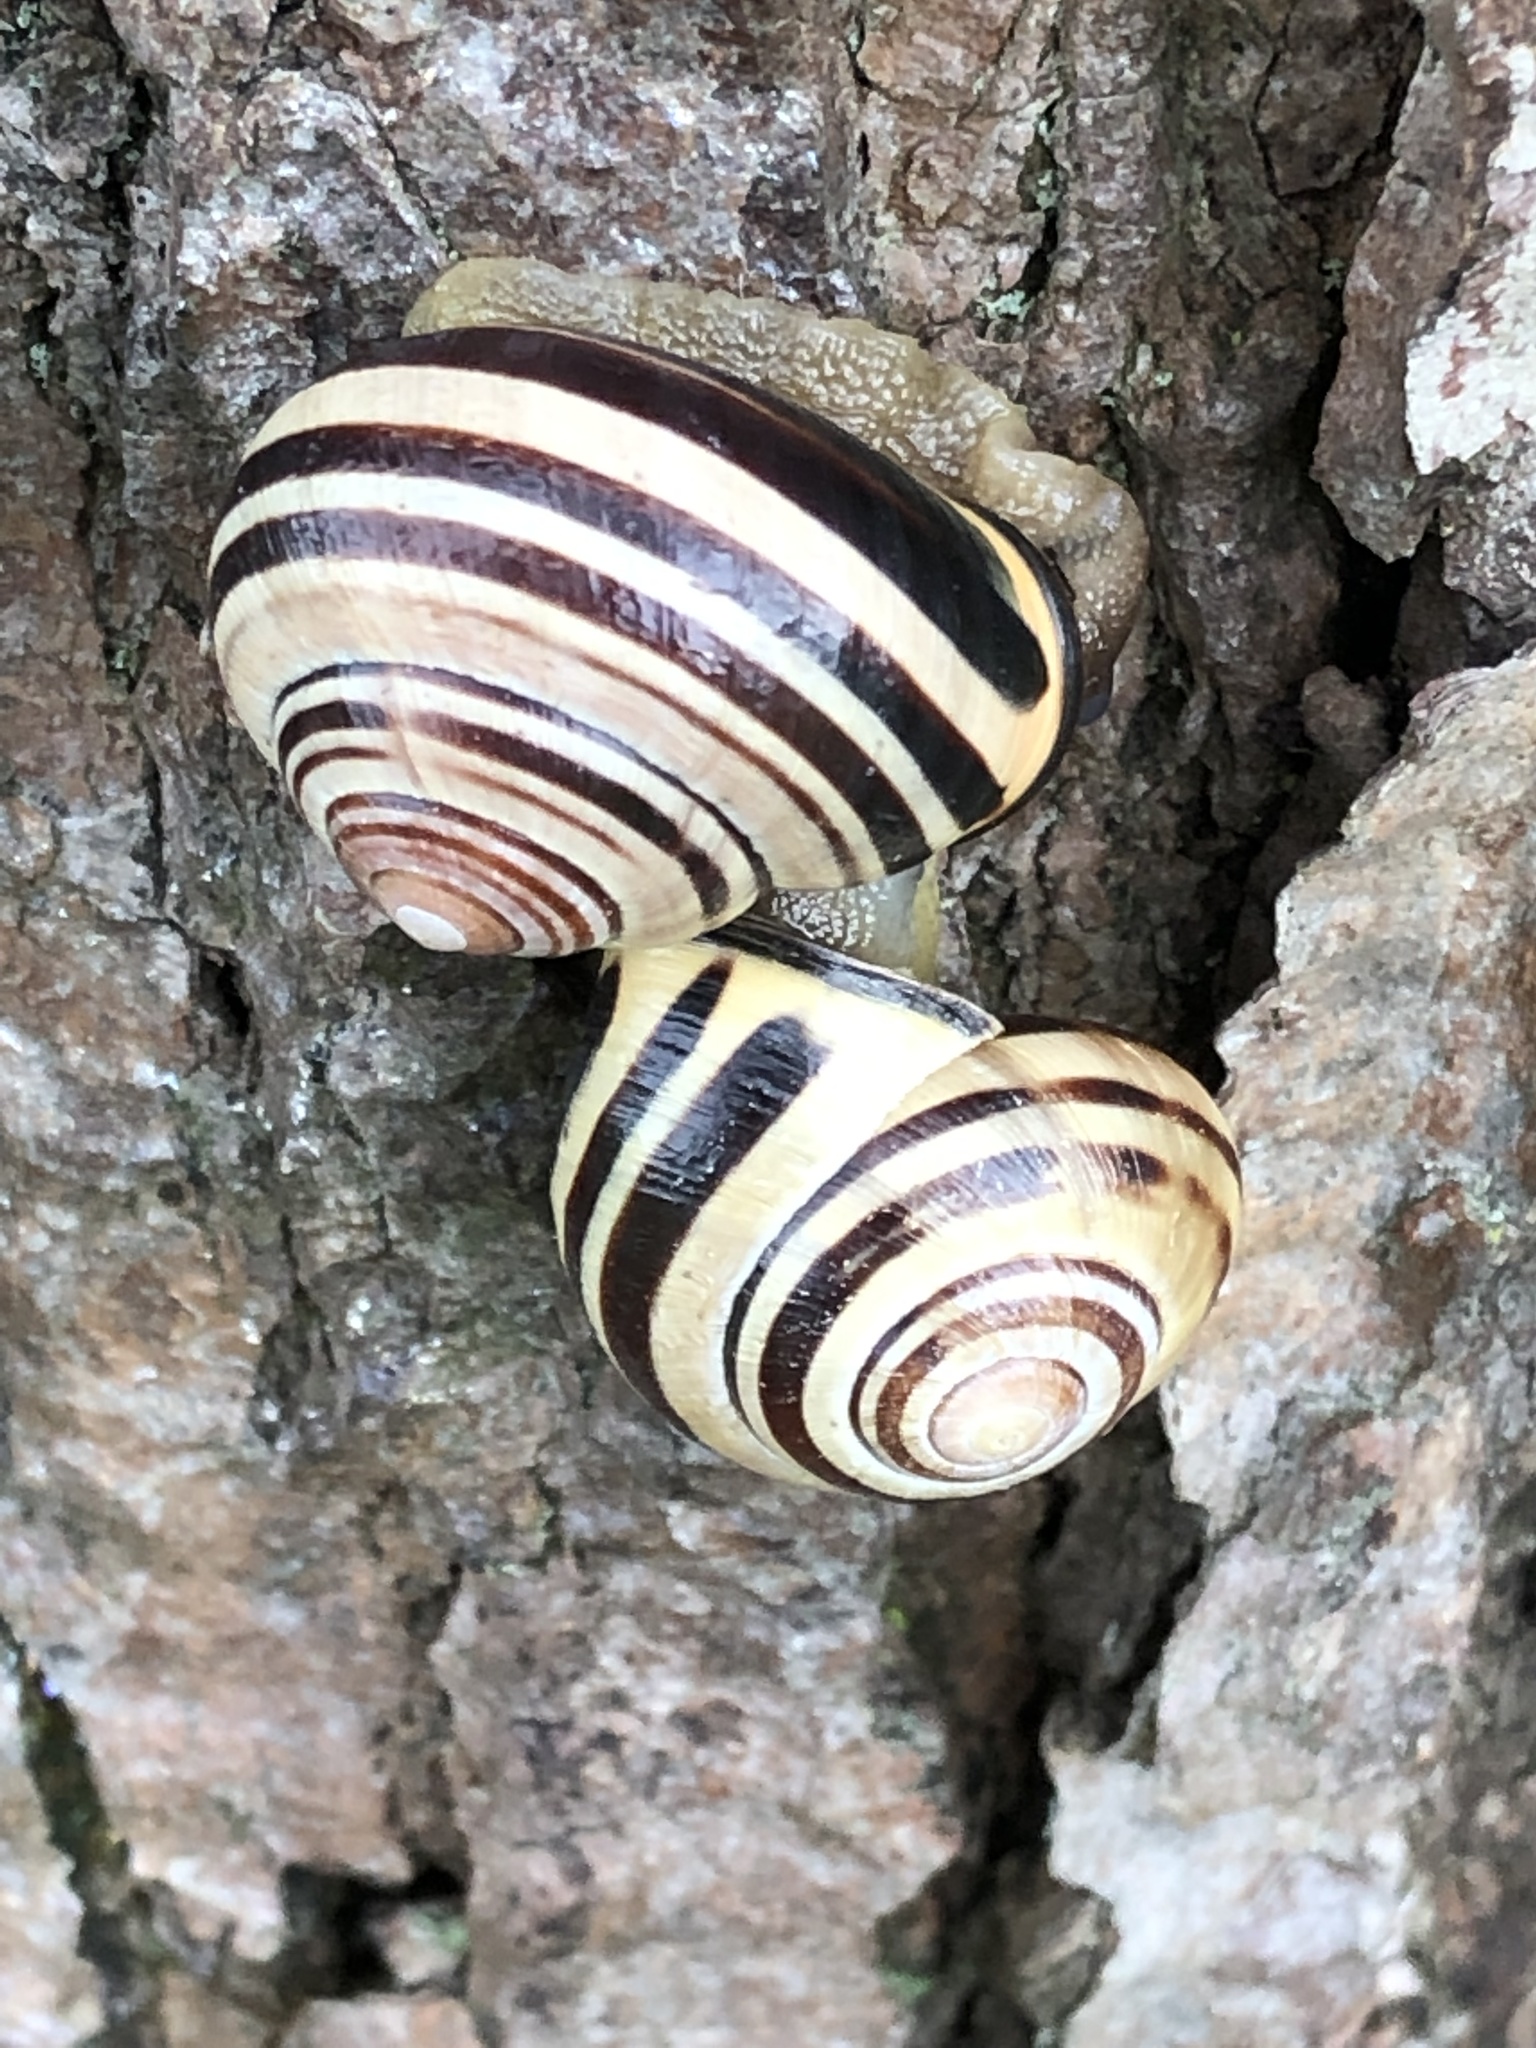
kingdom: Animalia
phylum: Mollusca
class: Gastropoda
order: Stylommatophora
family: Helicidae
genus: Cepaea
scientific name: Cepaea nemoralis
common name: Grovesnail
